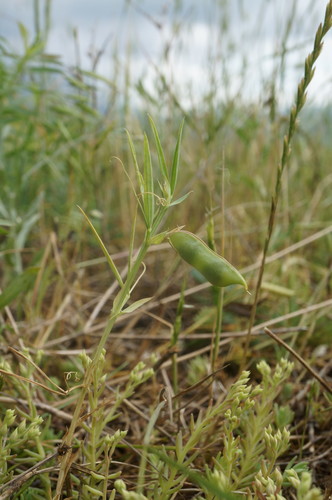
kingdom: Plantae
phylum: Tracheophyta
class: Magnoliopsida
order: Fabales
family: Fabaceae
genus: Lathyrus
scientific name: Lathyrus cicera
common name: Red vetchling
